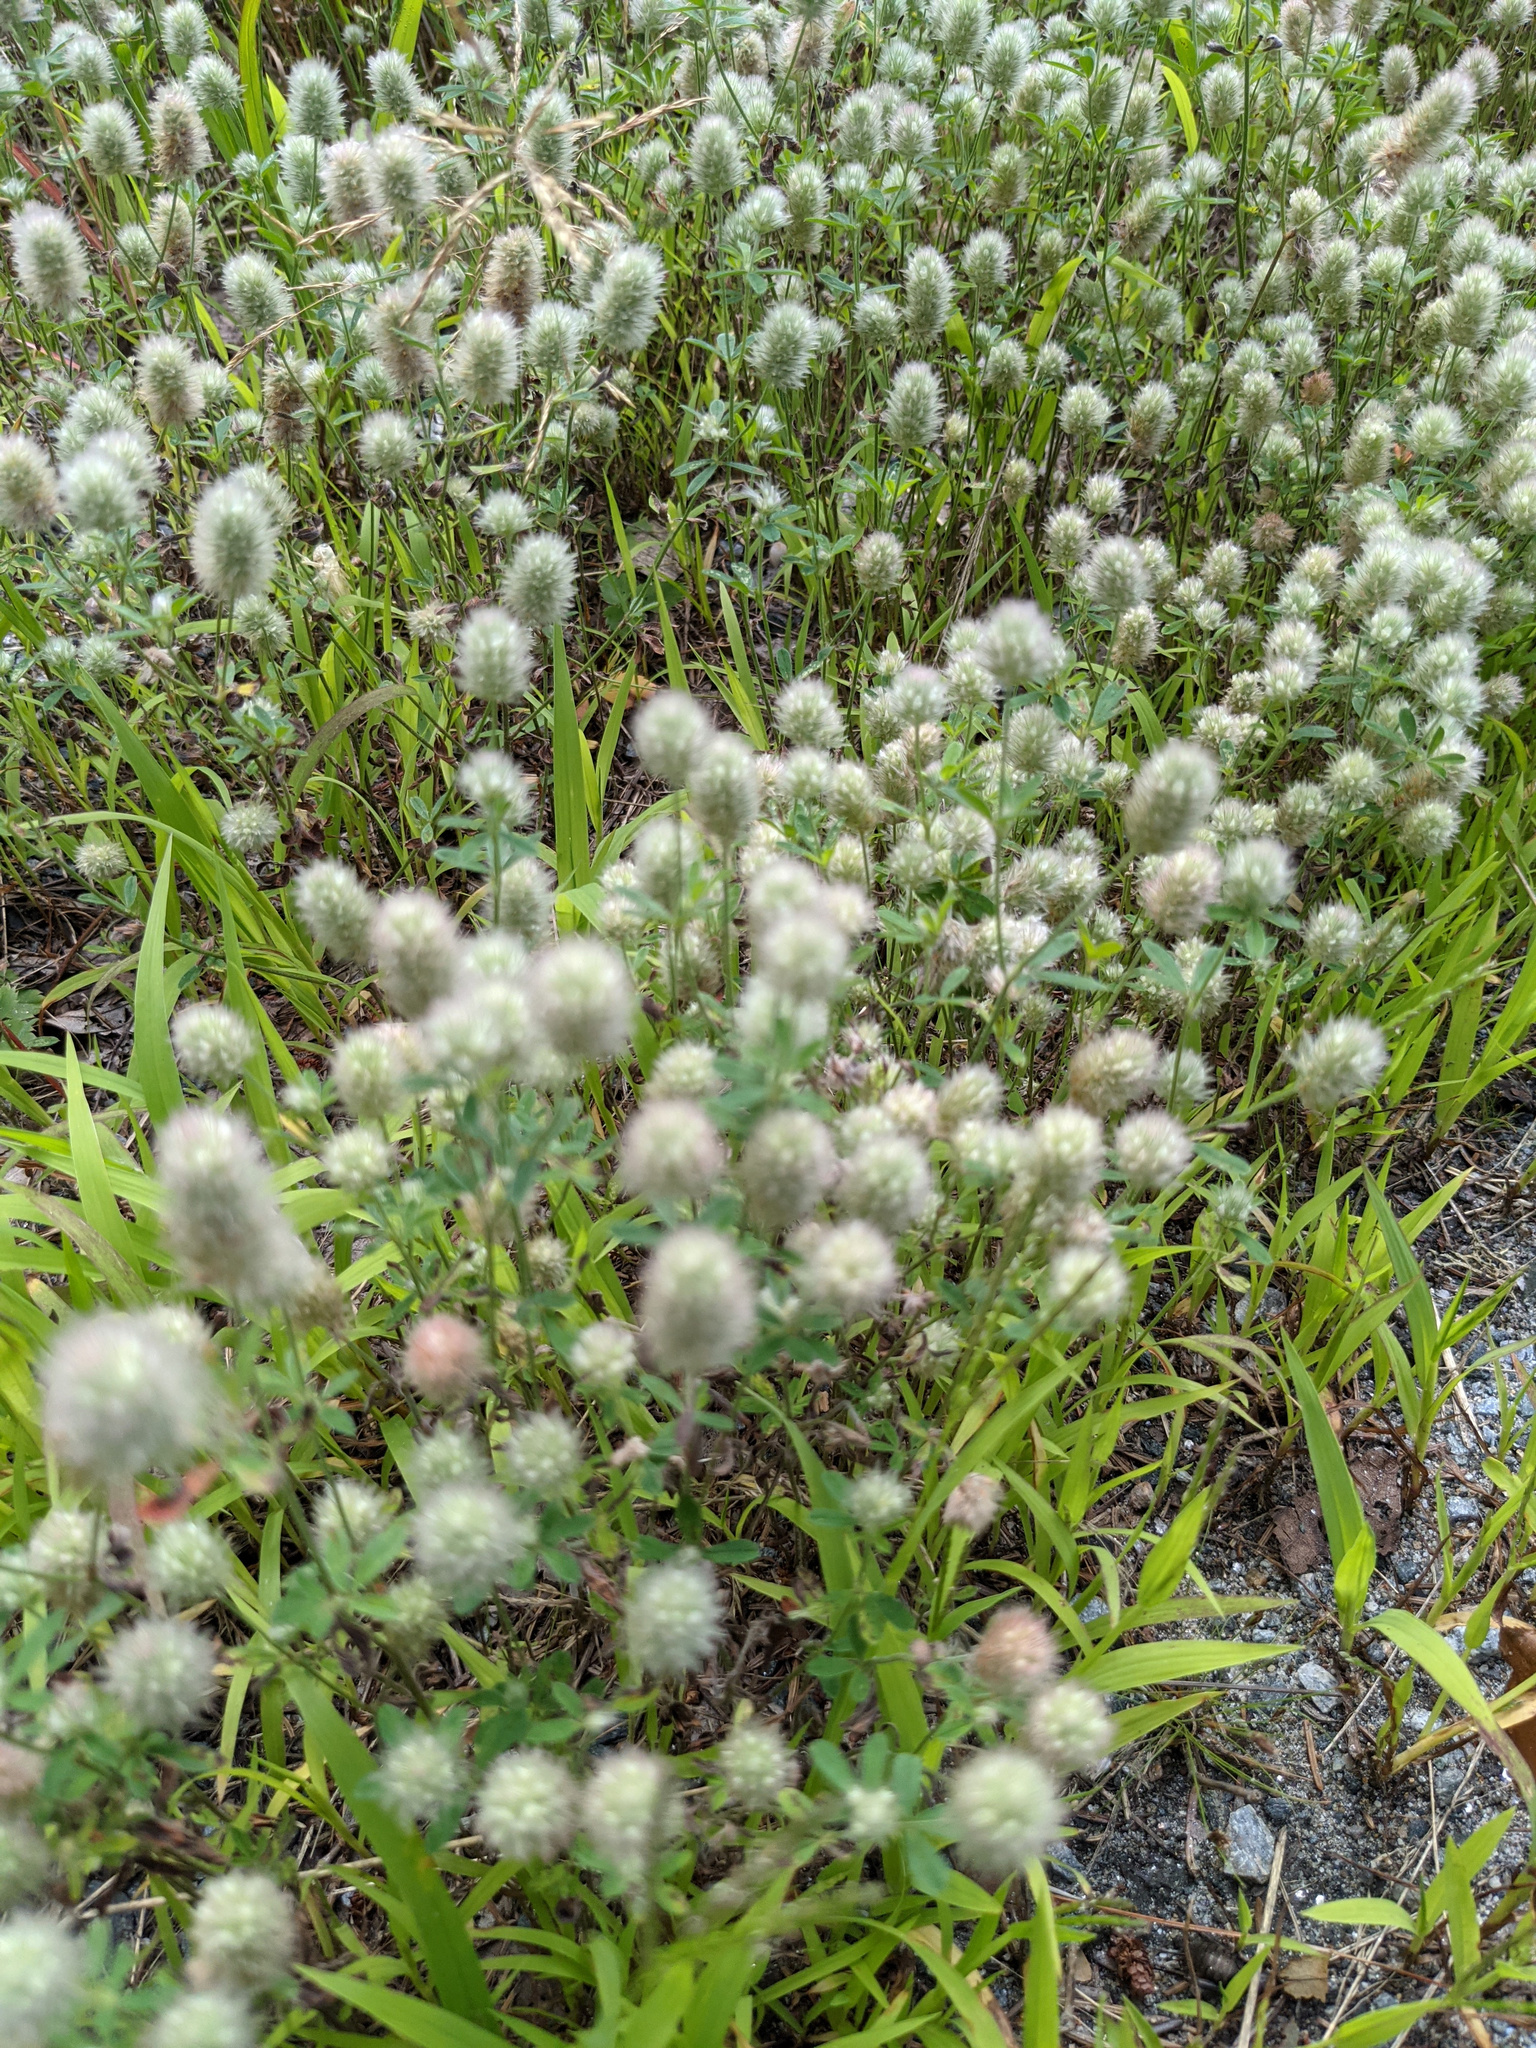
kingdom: Plantae
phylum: Tracheophyta
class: Magnoliopsida
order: Fabales
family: Fabaceae
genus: Trifolium
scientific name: Trifolium arvense
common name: Hare's-foot clover
